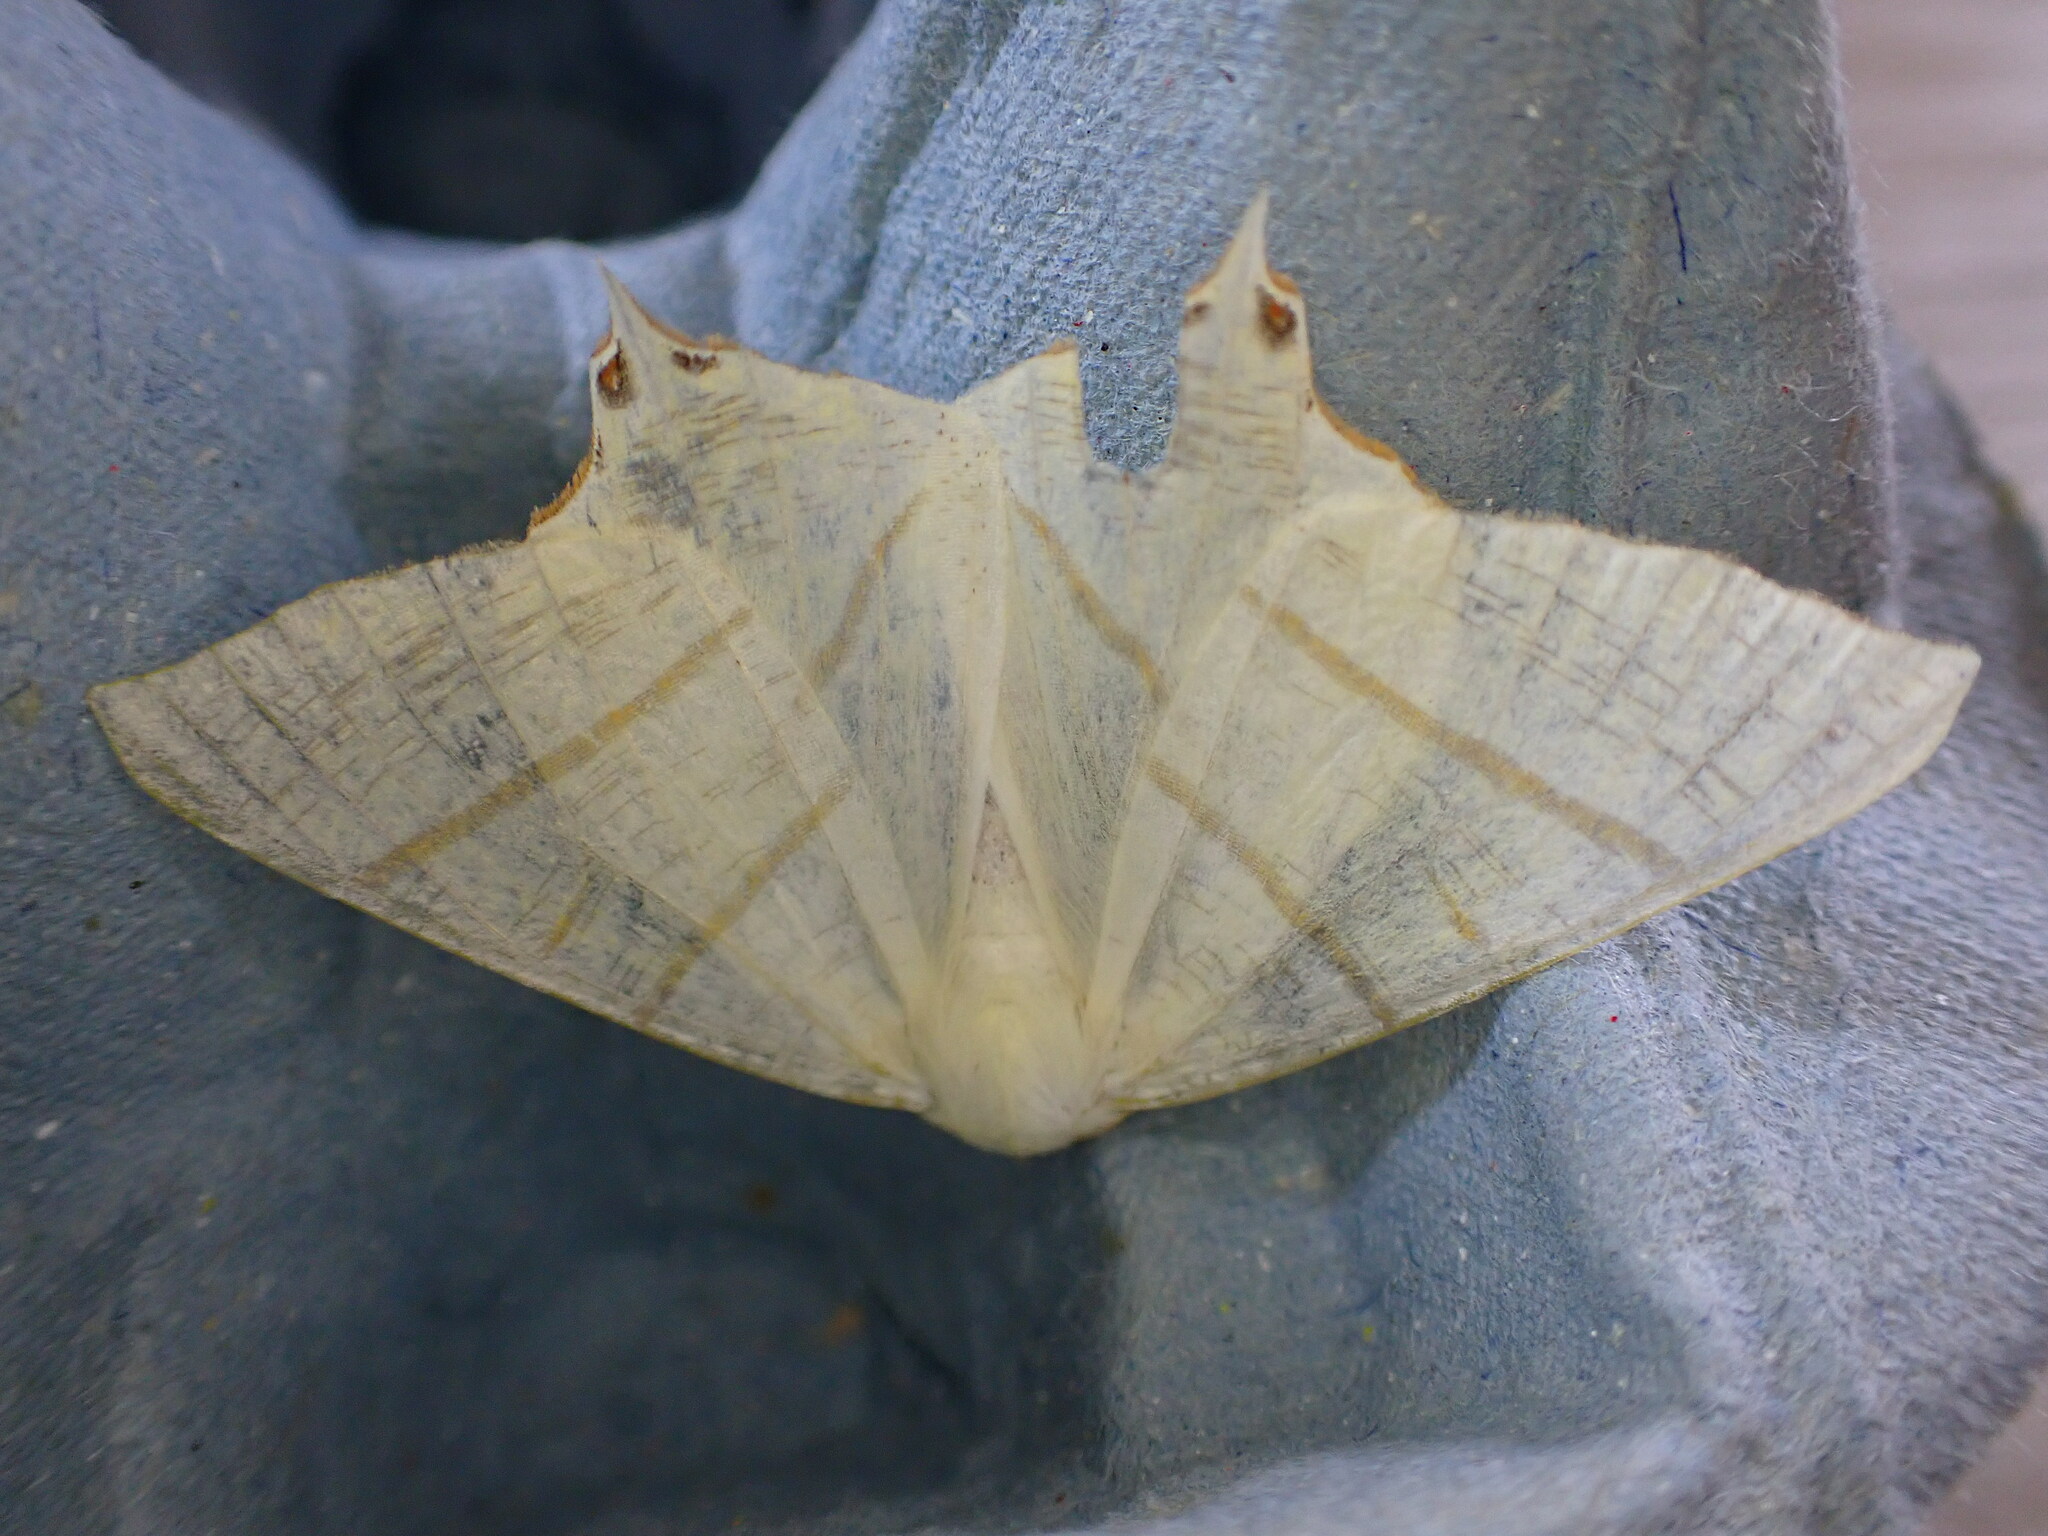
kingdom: Animalia
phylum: Arthropoda
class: Insecta
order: Lepidoptera
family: Geometridae
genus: Ourapteryx
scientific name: Ourapteryx sambucaria
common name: Swallow-tailed moth
